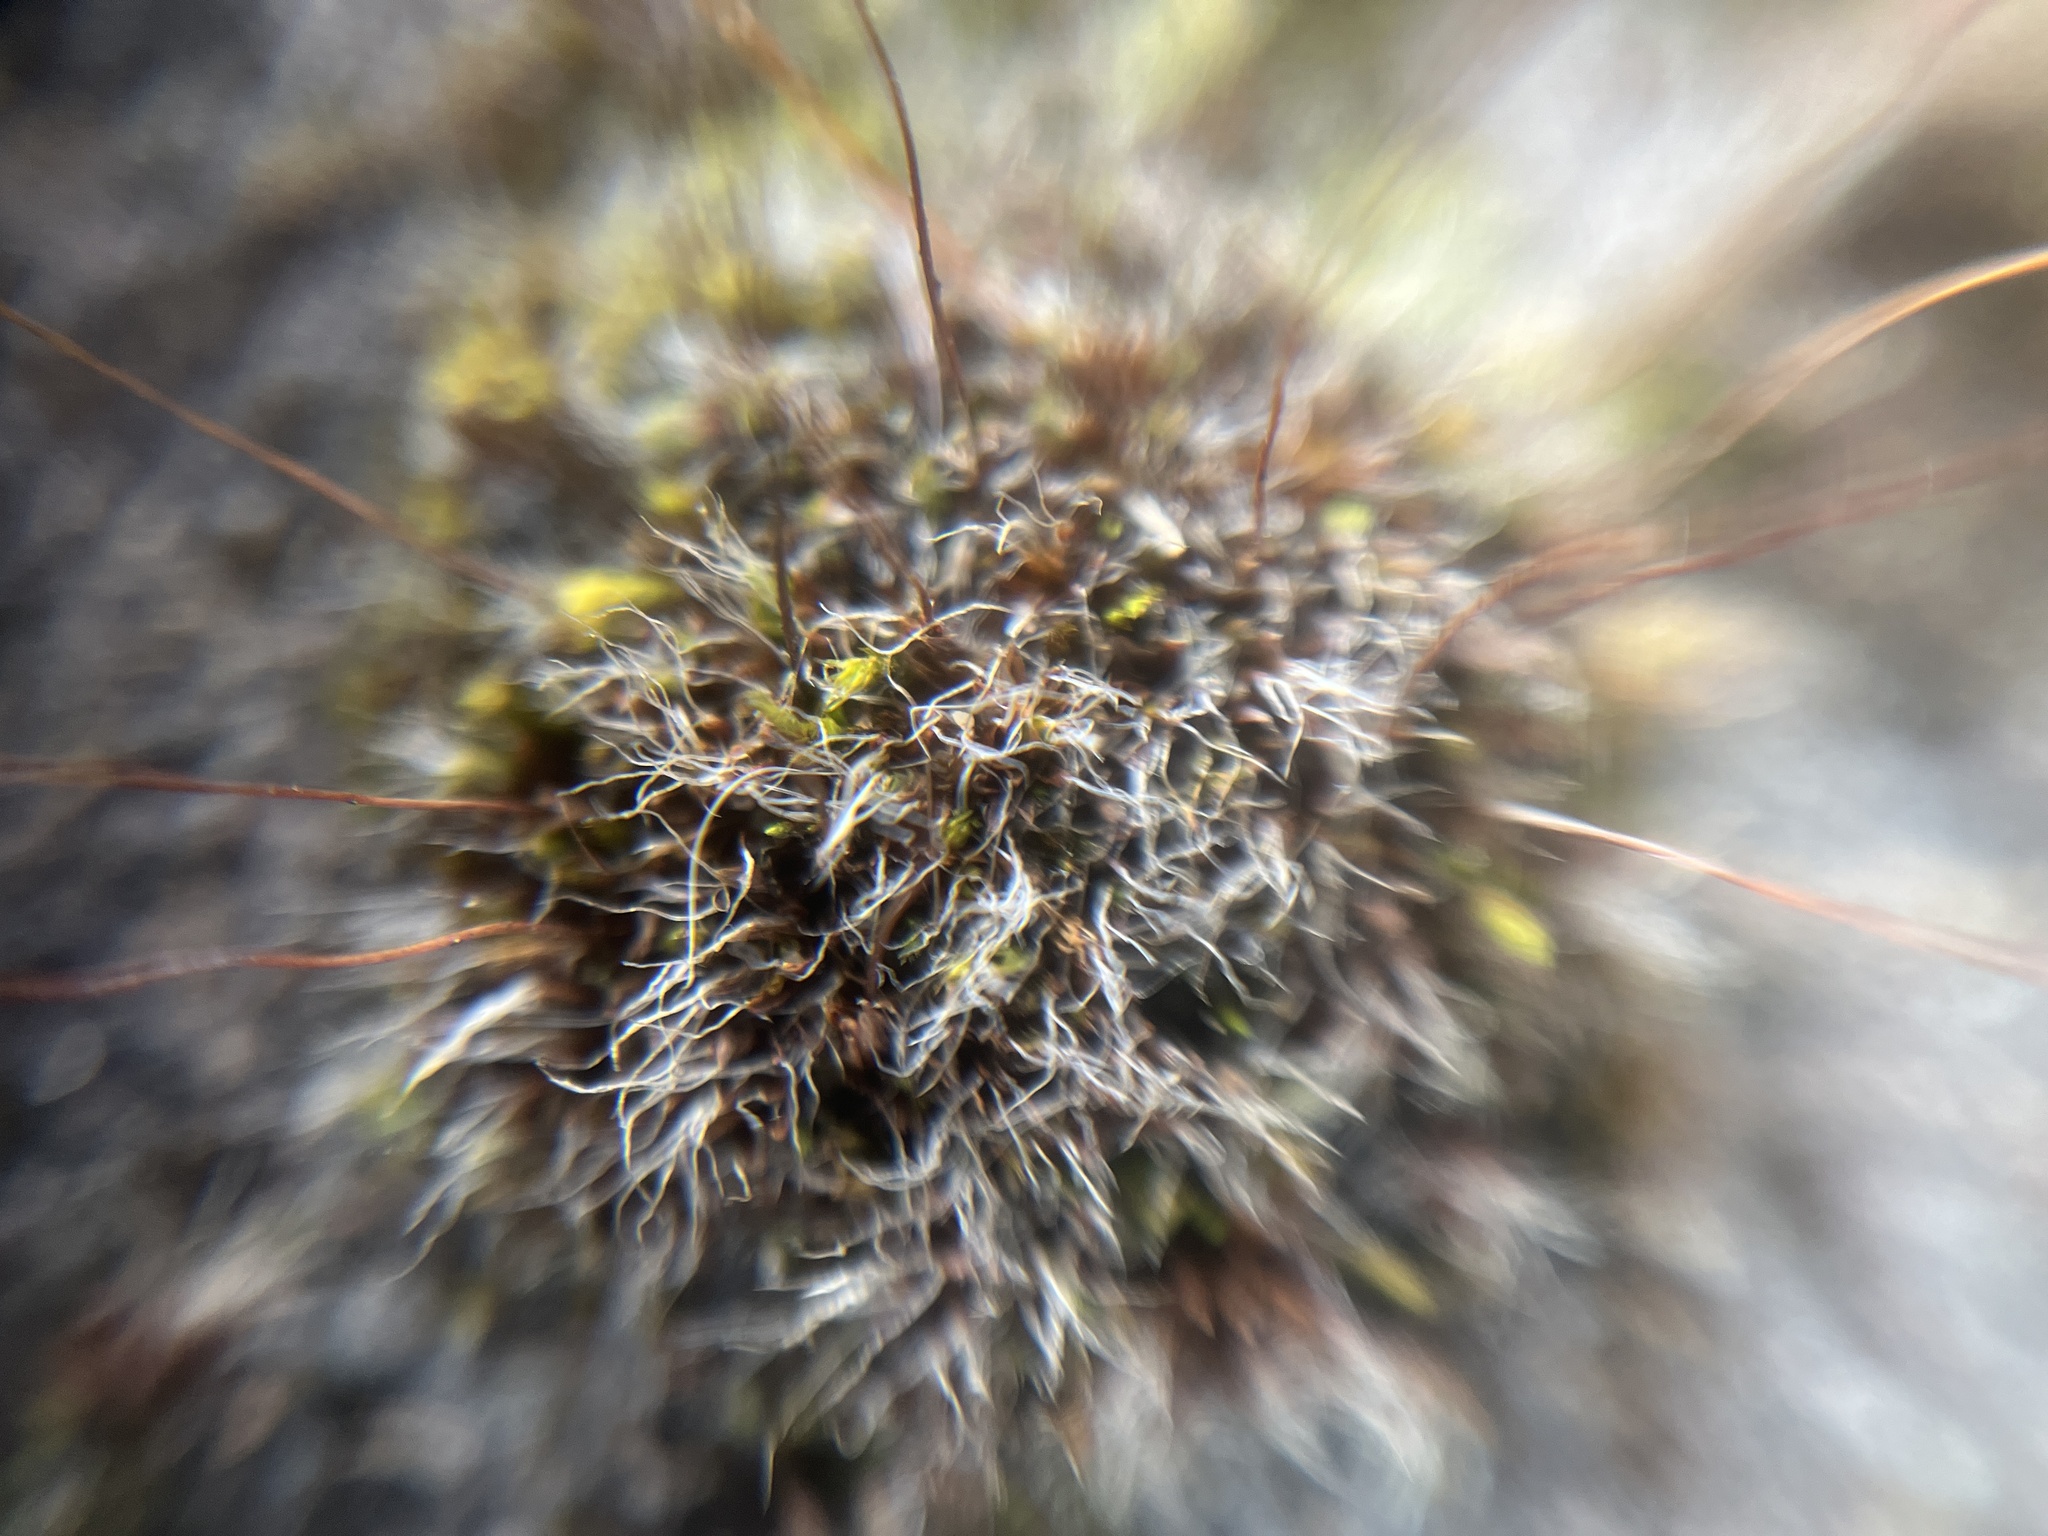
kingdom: Plantae
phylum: Bryophyta
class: Bryopsida
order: Pottiales
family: Pottiaceae
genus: Tortula
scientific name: Tortula muralis
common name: Wall screw-moss
